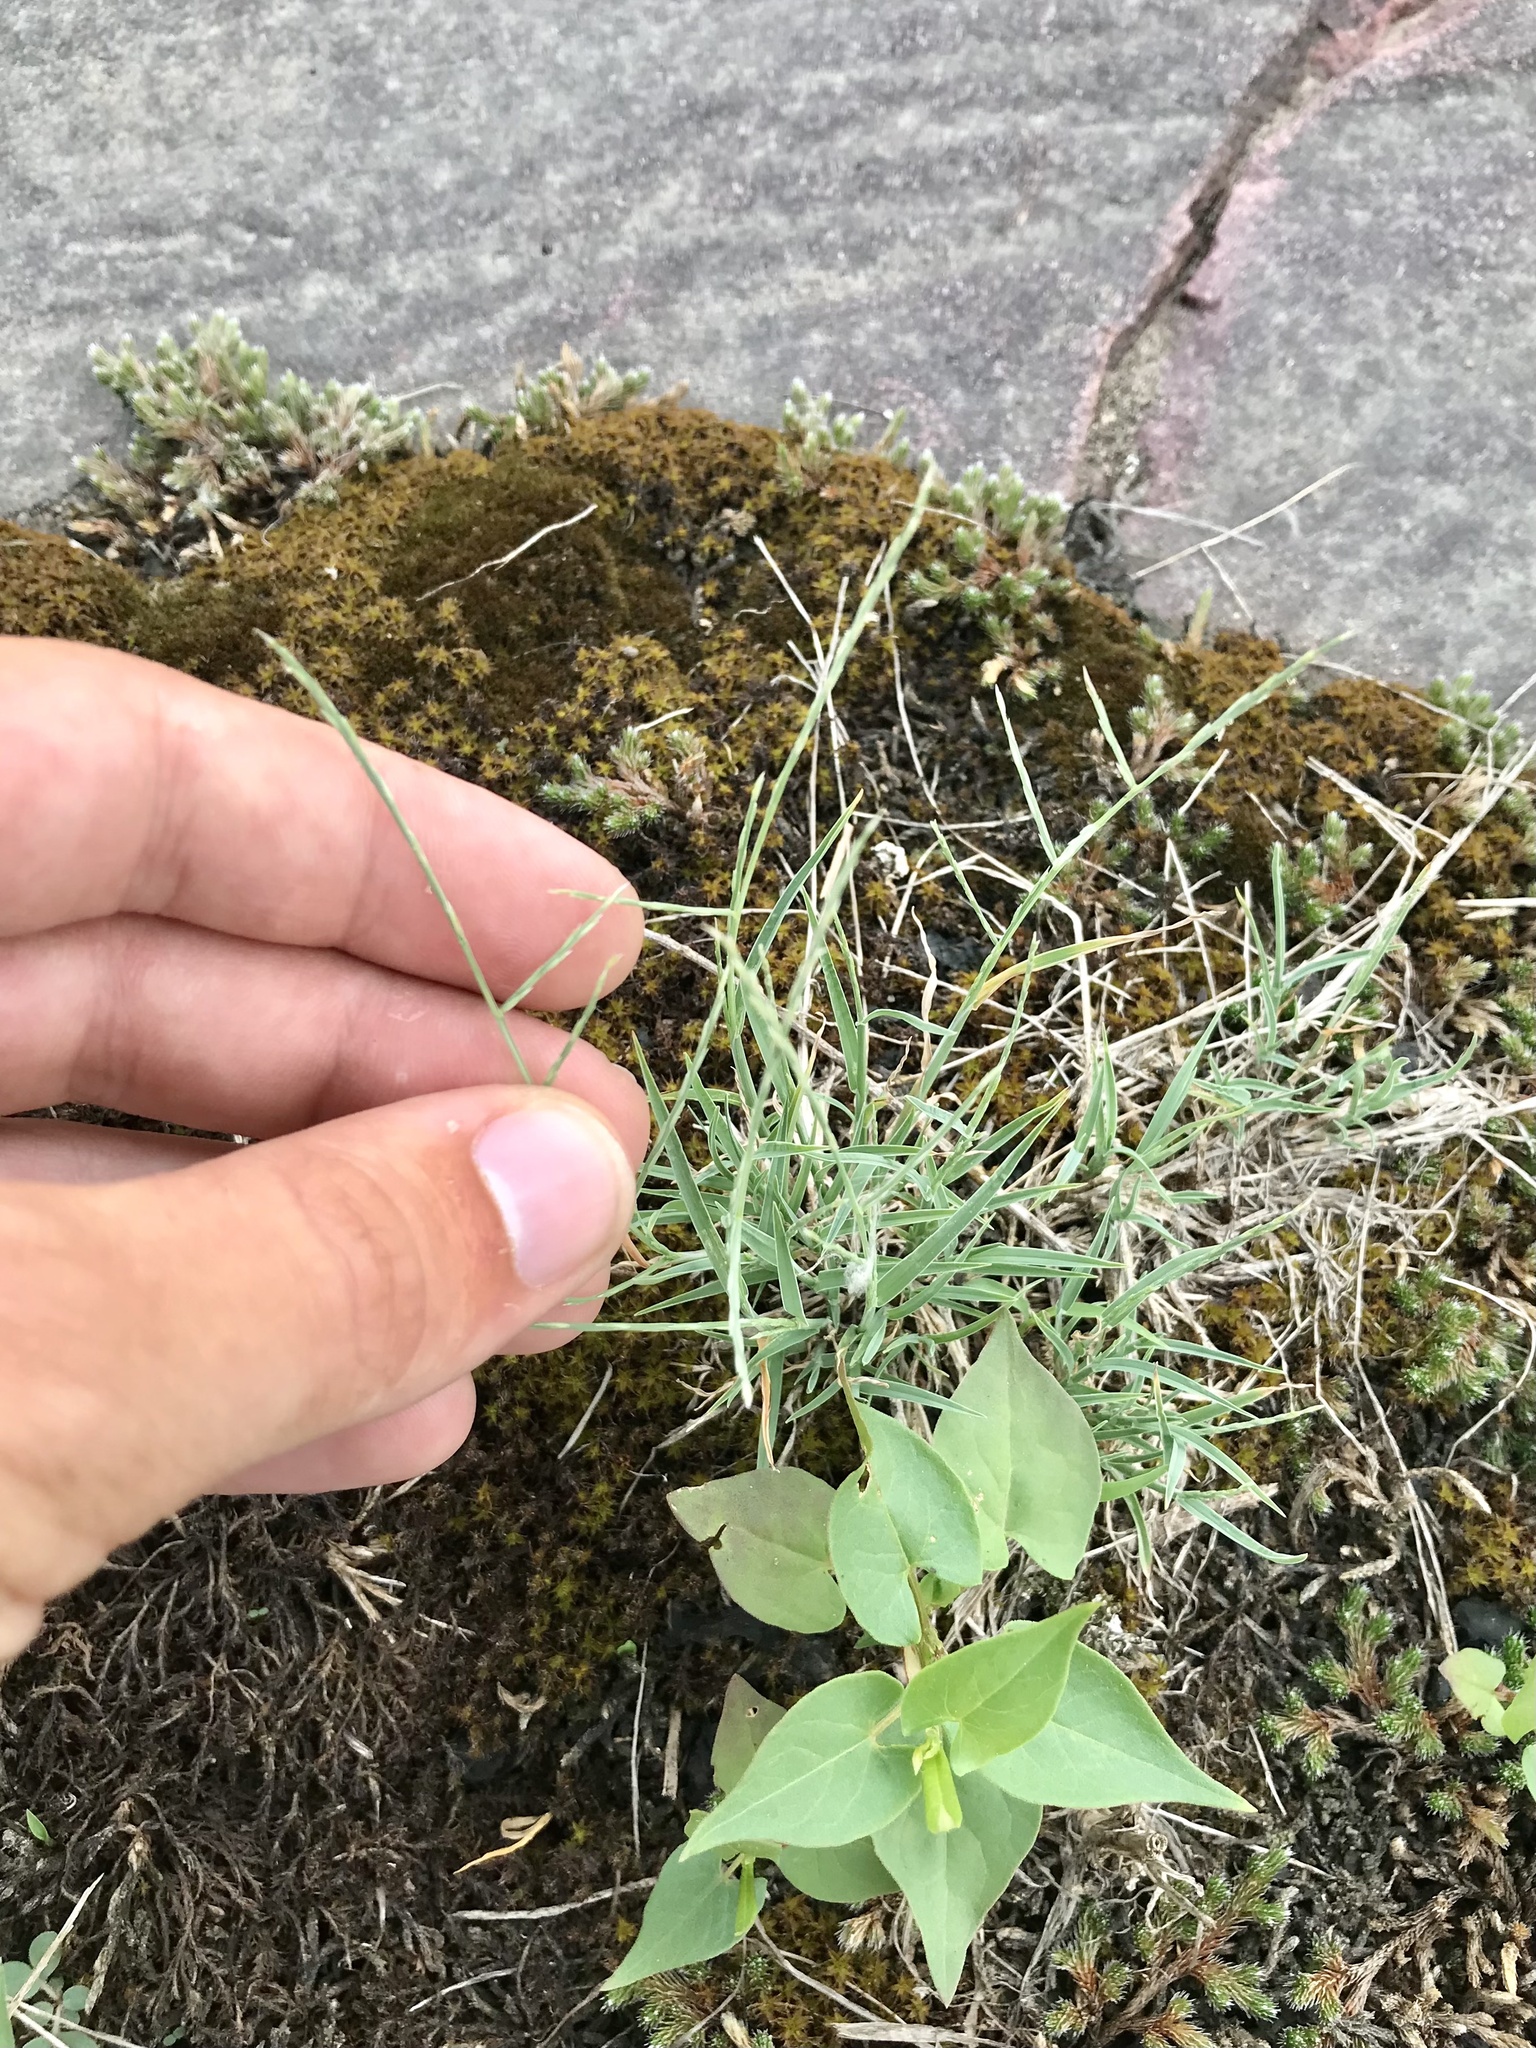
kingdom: Plantae
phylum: Tracheophyta
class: Liliopsida
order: Poales
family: Poaceae
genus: Muhlenbergia
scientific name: Muhlenbergia paniculata
